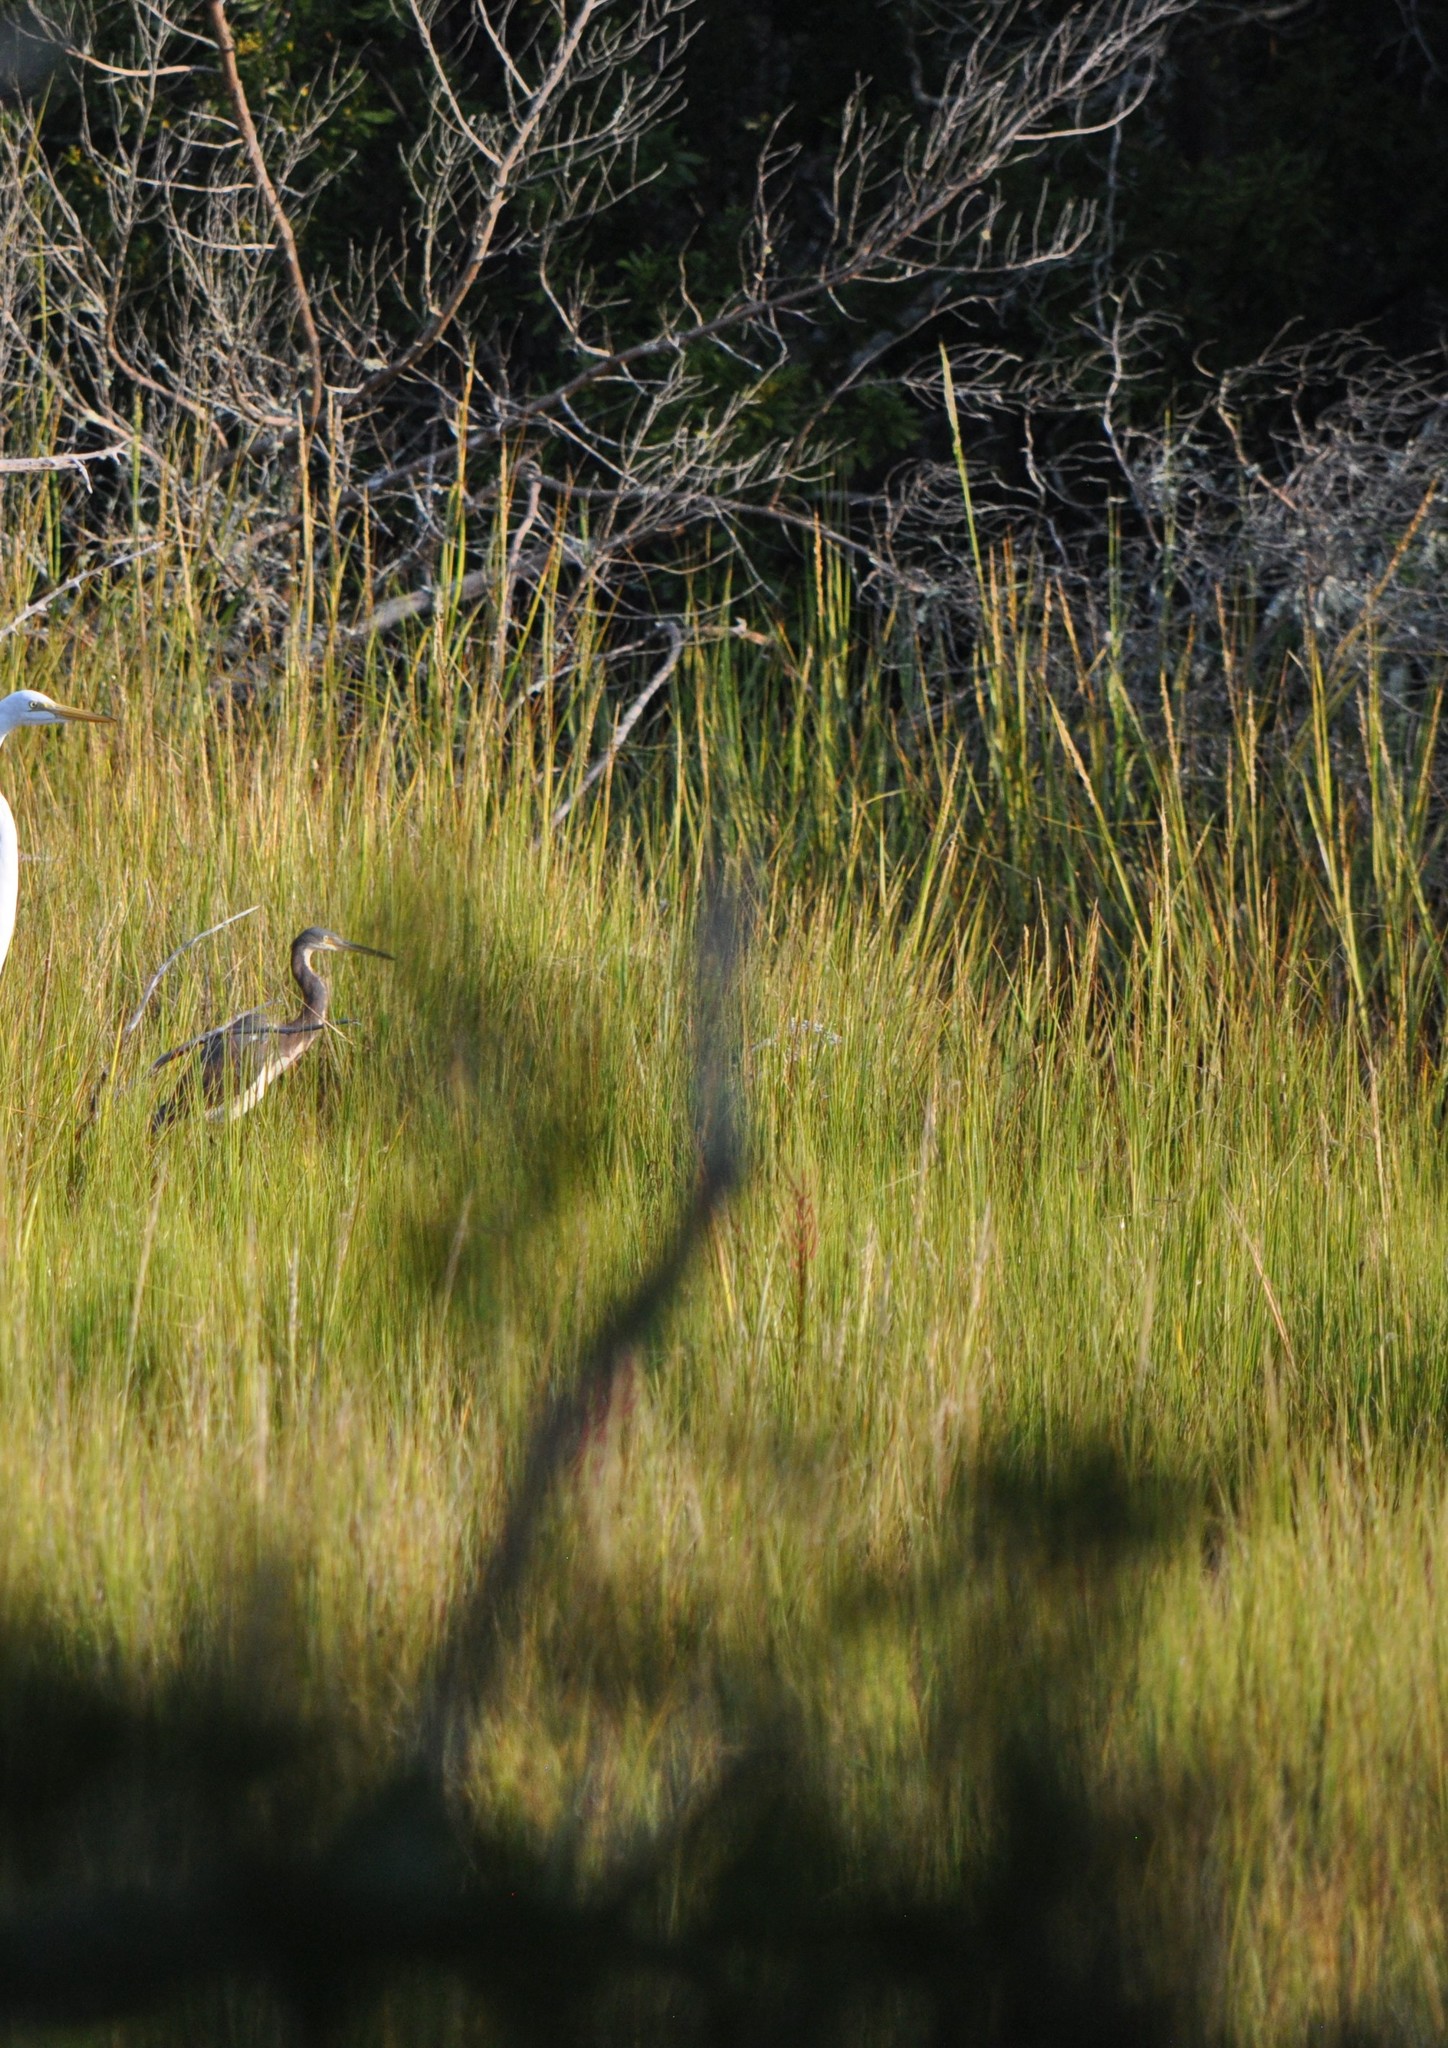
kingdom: Animalia
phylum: Chordata
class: Aves
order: Pelecaniformes
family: Ardeidae
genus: Egretta
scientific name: Egretta tricolor
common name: Tricolored heron
